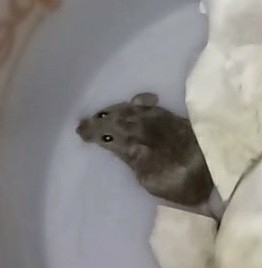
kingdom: Animalia
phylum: Chordata
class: Mammalia
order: Rodentia
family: Muridae
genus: Mus
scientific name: Mus musculus
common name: House mouse
